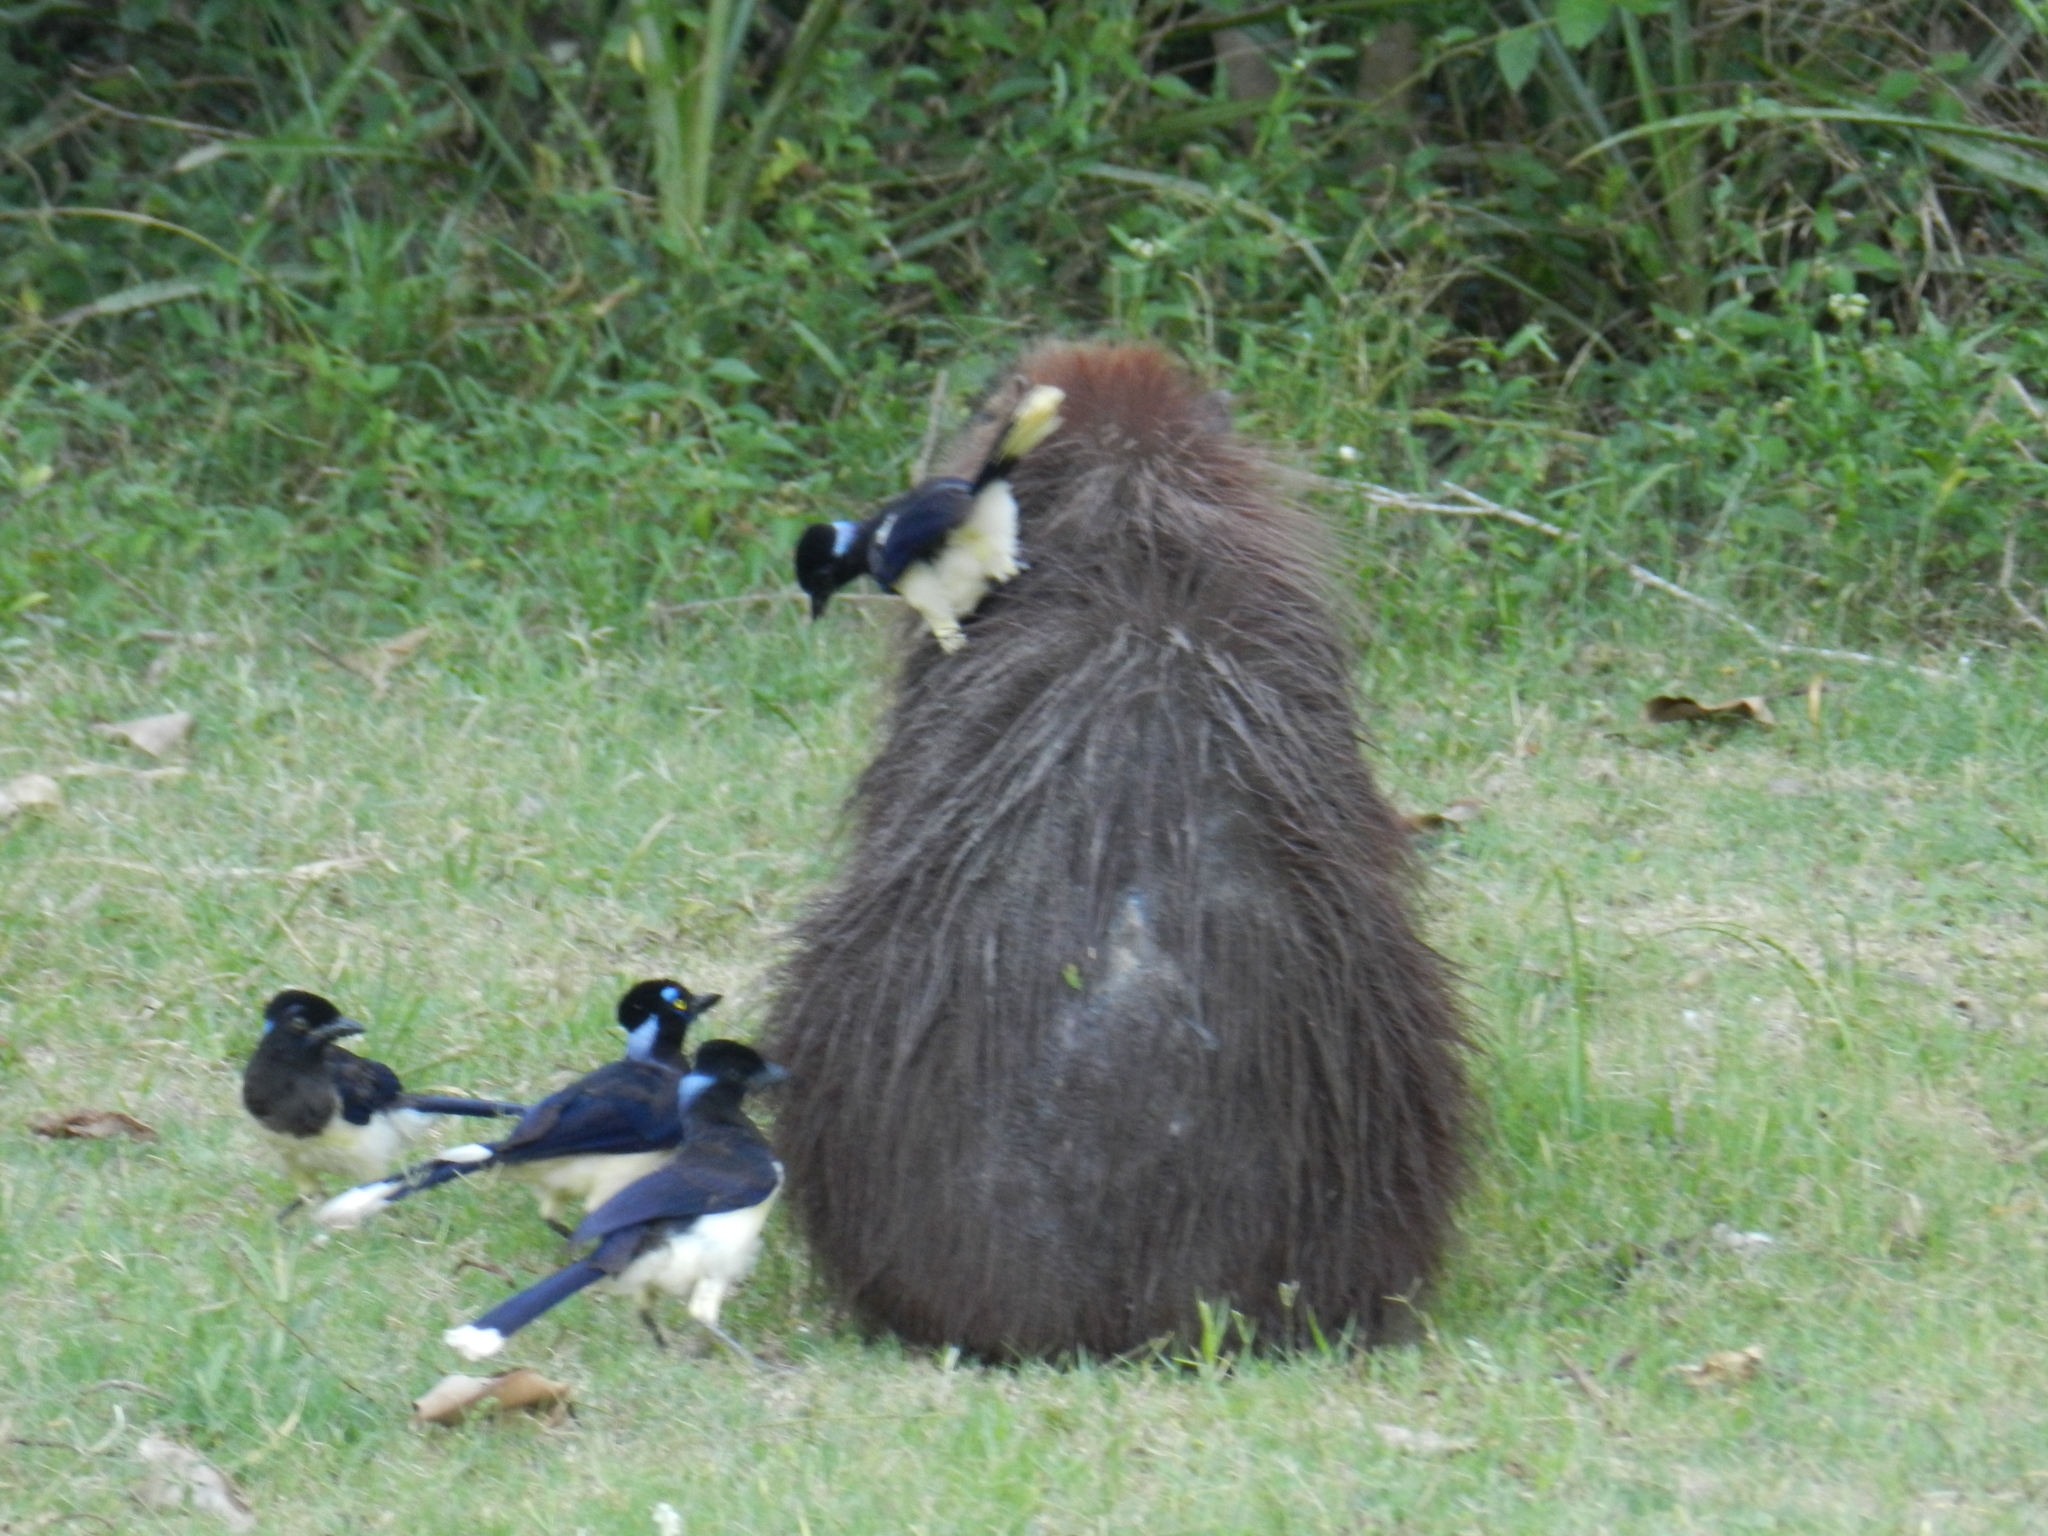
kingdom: Animalia
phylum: Chordata
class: Aves
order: Passeriformes
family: Corvidae
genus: Cyanocorax
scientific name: Cyanocorax chrysops
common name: Plush-crested jay
